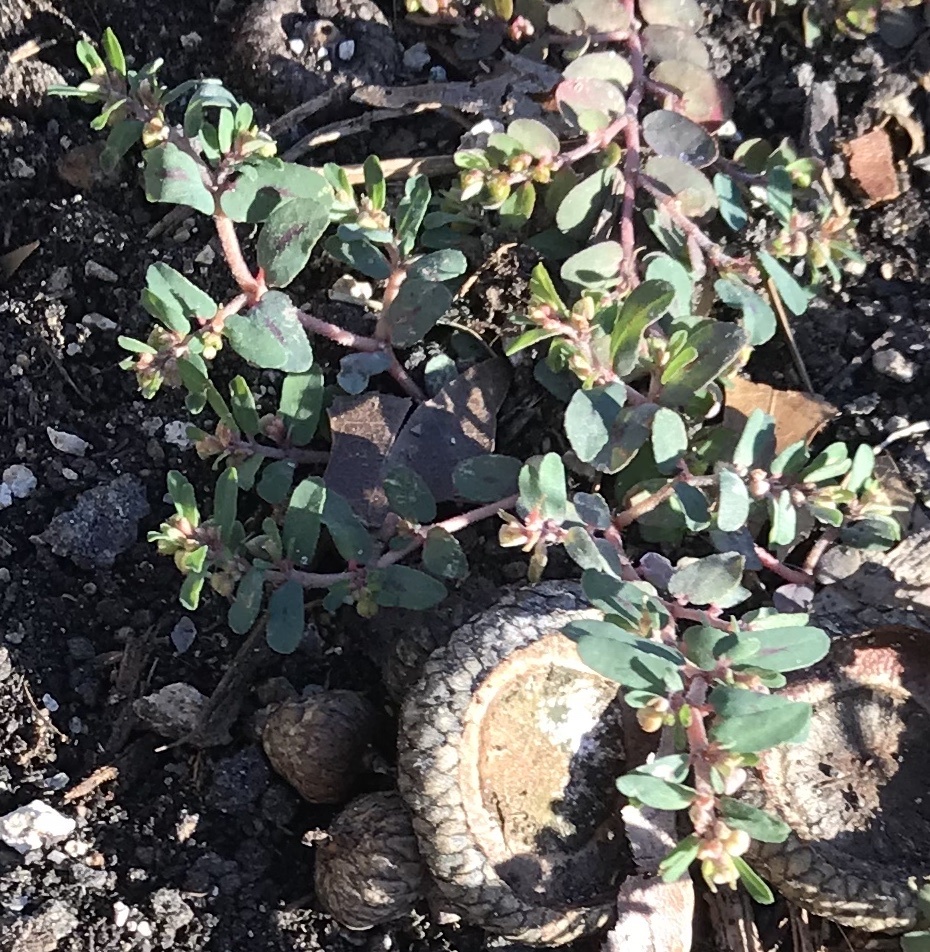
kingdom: Plantae
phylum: Tracheophyta
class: Magnoliopsida
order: Malpighiales
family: Euphorbiaceae
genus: Euphorbia
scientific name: Euphorbia maculata
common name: Spotted spurge
